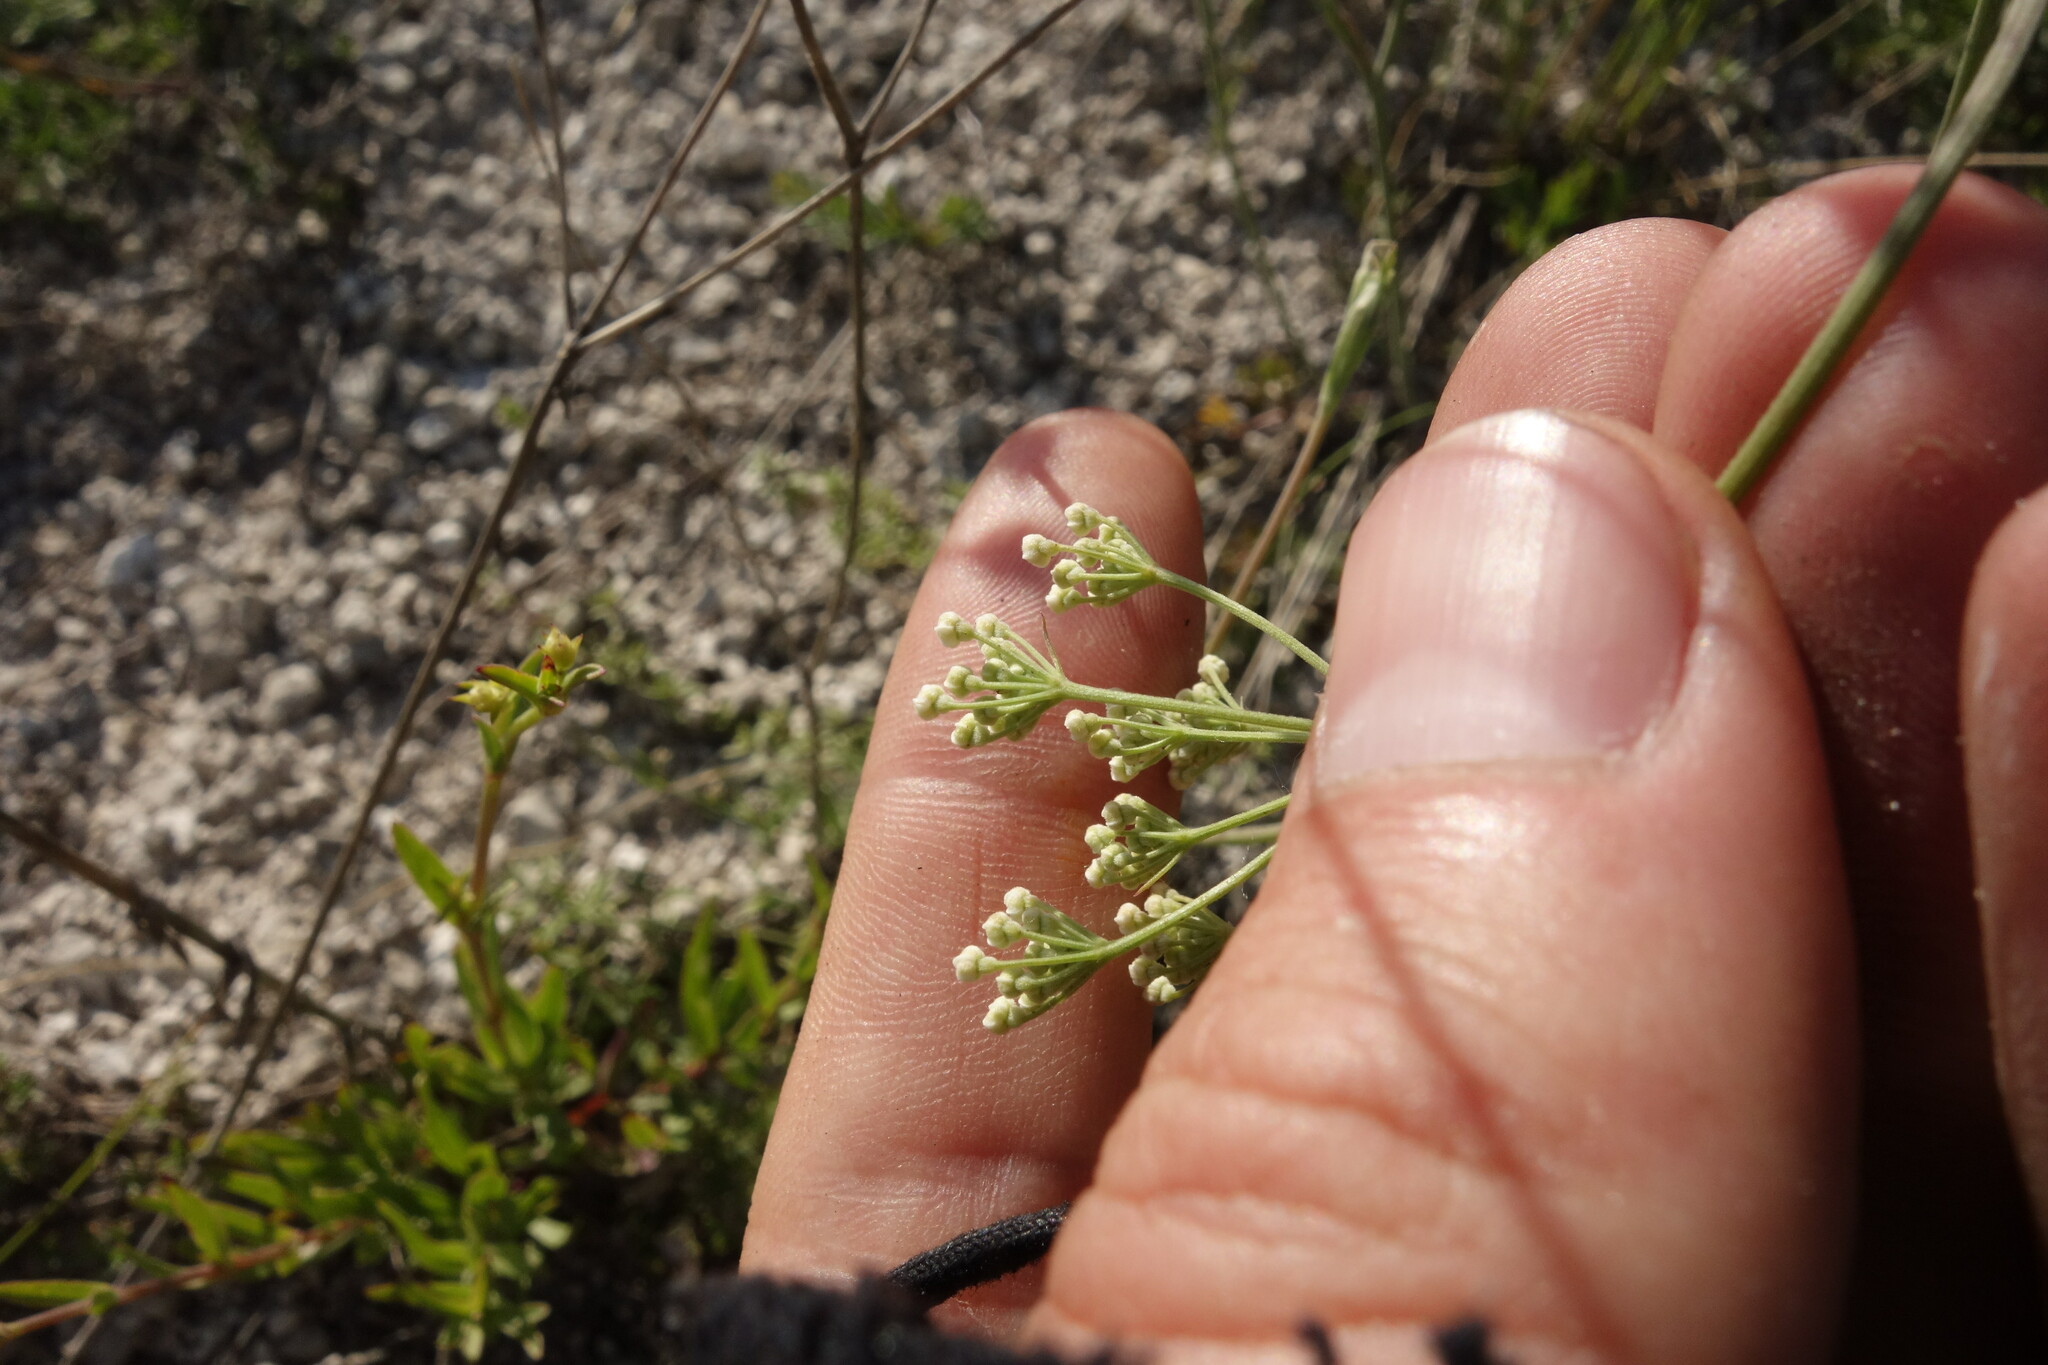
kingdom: Plantae
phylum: Tracheophyta
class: Magnoliopsida
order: Apiales
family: Apiaceae
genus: Pimpinella
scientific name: Pimpinella tragium
